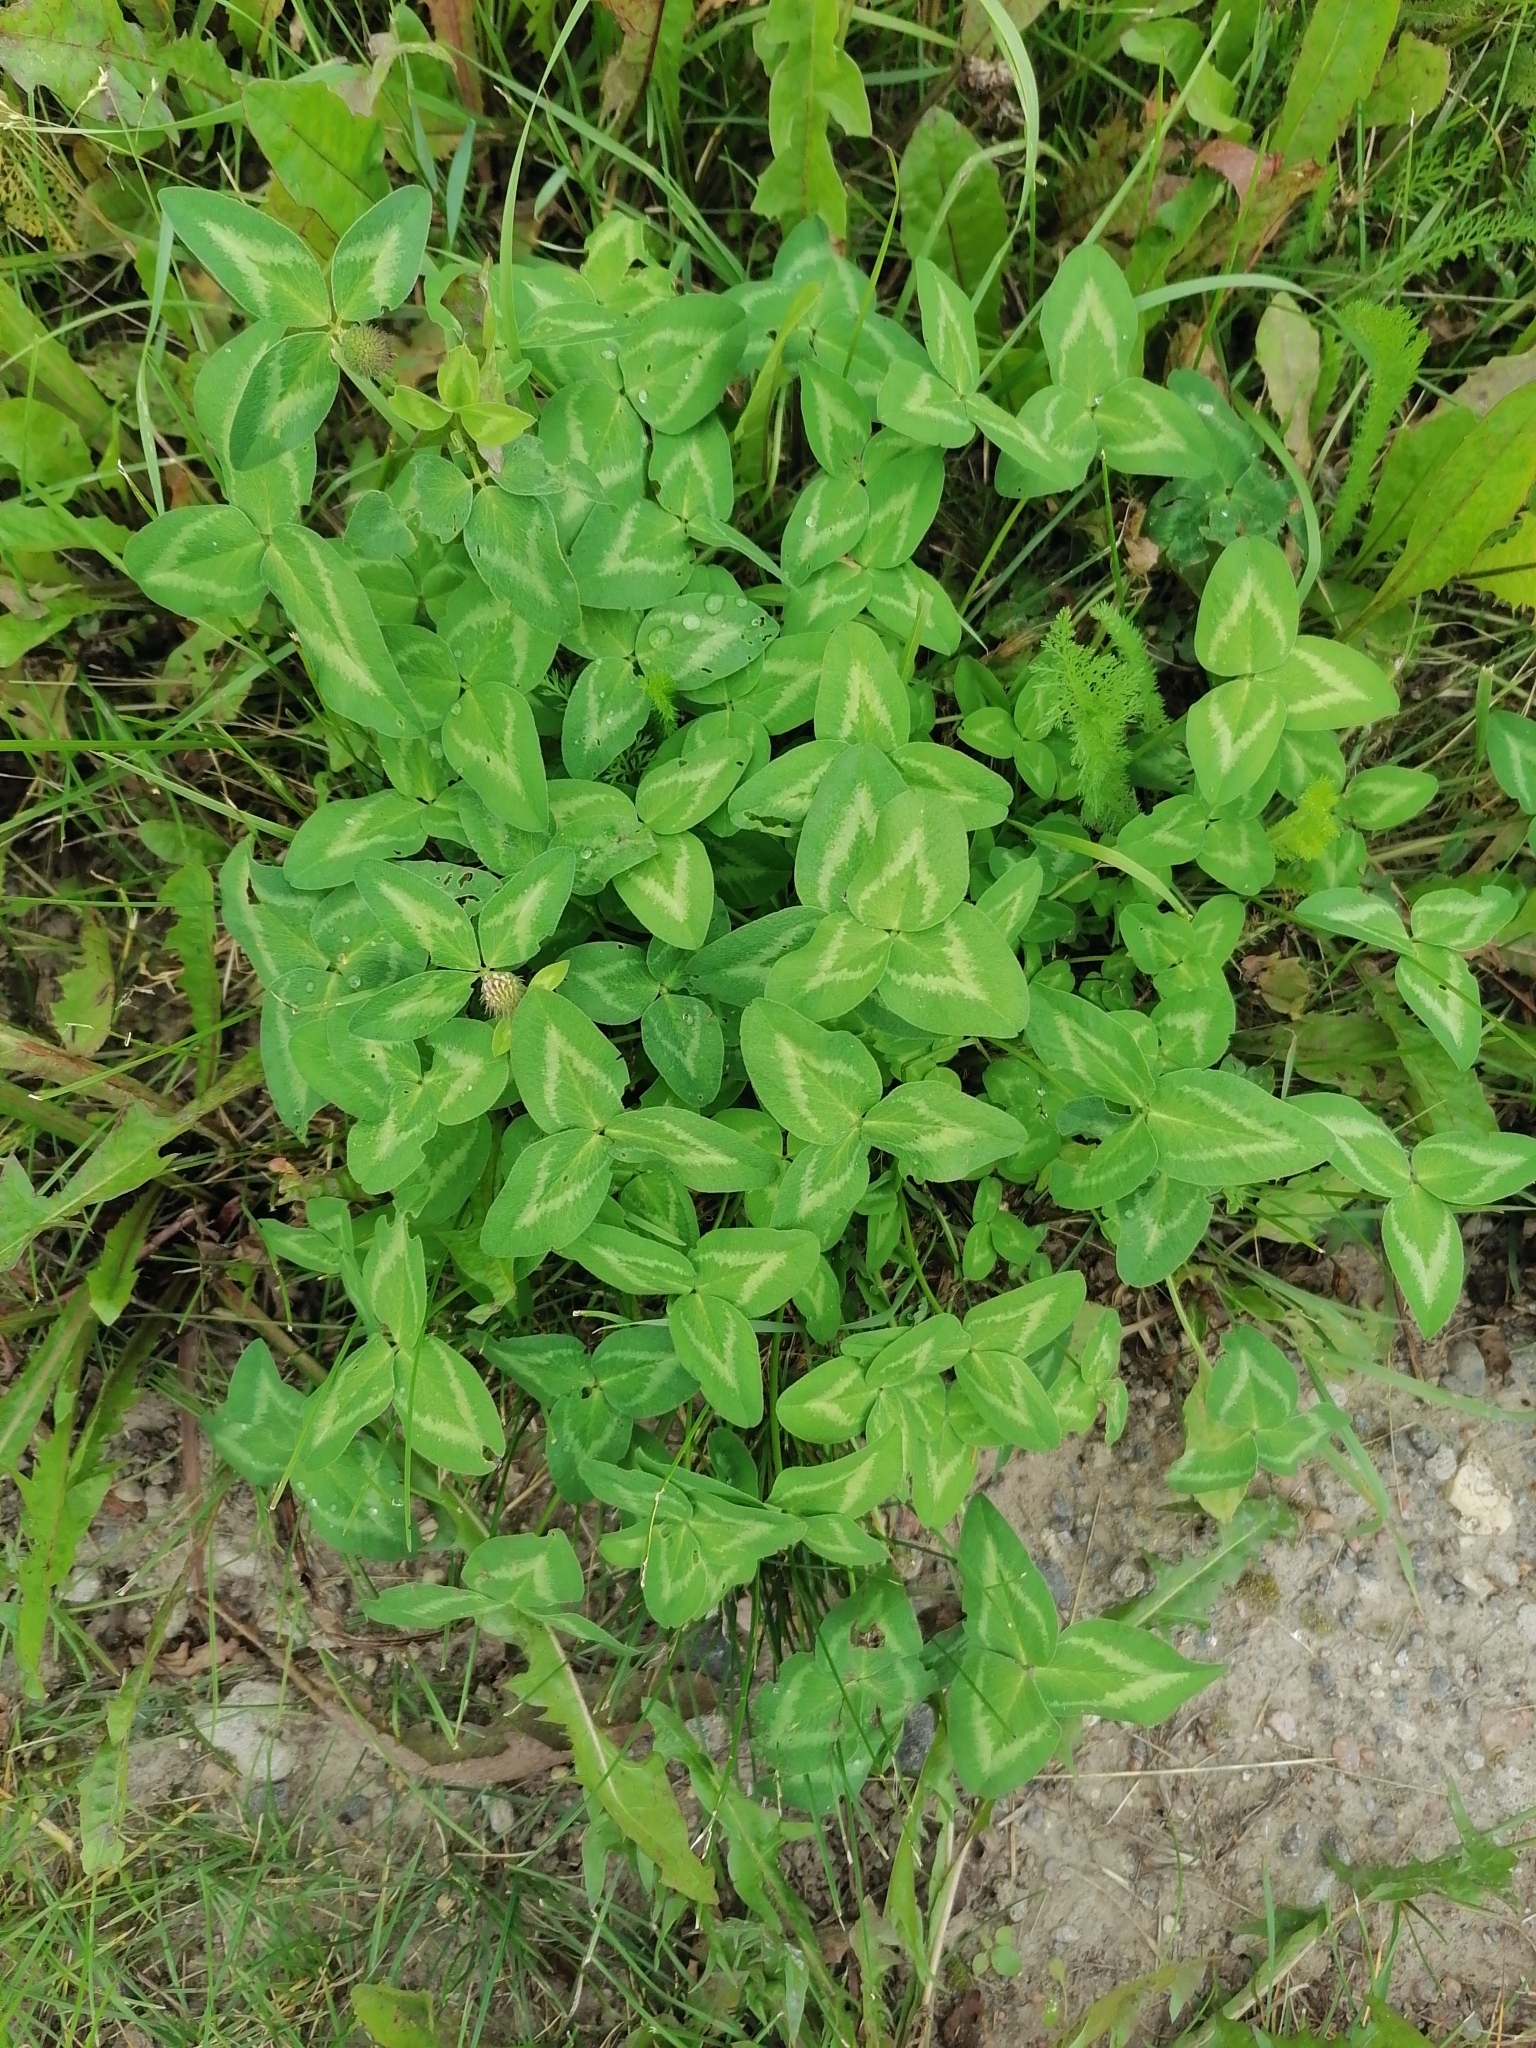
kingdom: Plantae
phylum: Tracheophyta
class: Magnoliopsida
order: Fabales
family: Fabaceae
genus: Trifolium
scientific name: Trifolium pratense
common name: Red clover
